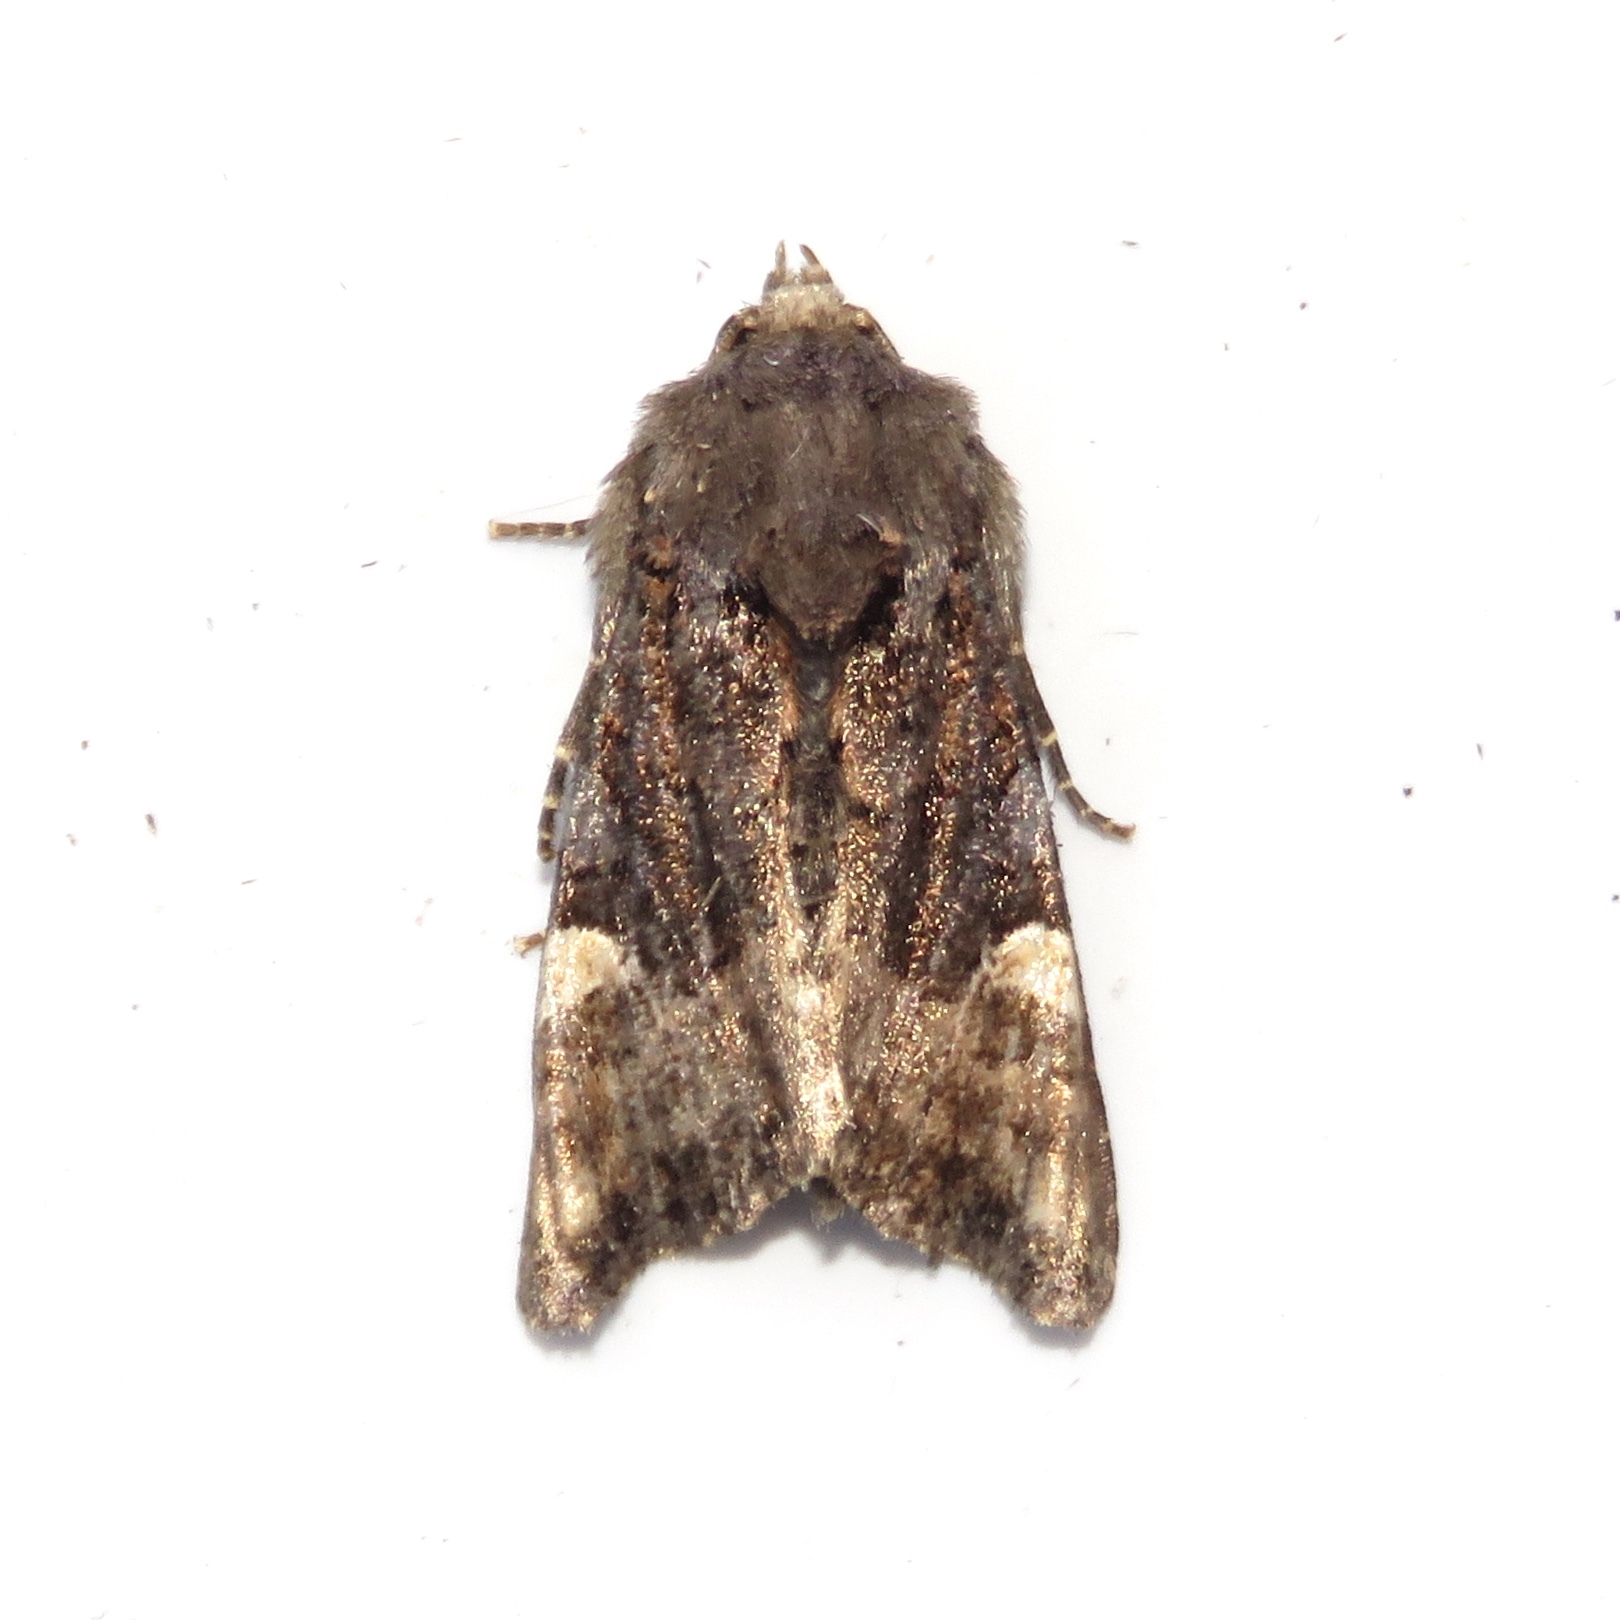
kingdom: Animalia
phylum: Arthropoda
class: Insecta
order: Lepidoptera
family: Noctuidae
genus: Euplexia
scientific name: Euplexia benesimilis
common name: American angle shades
